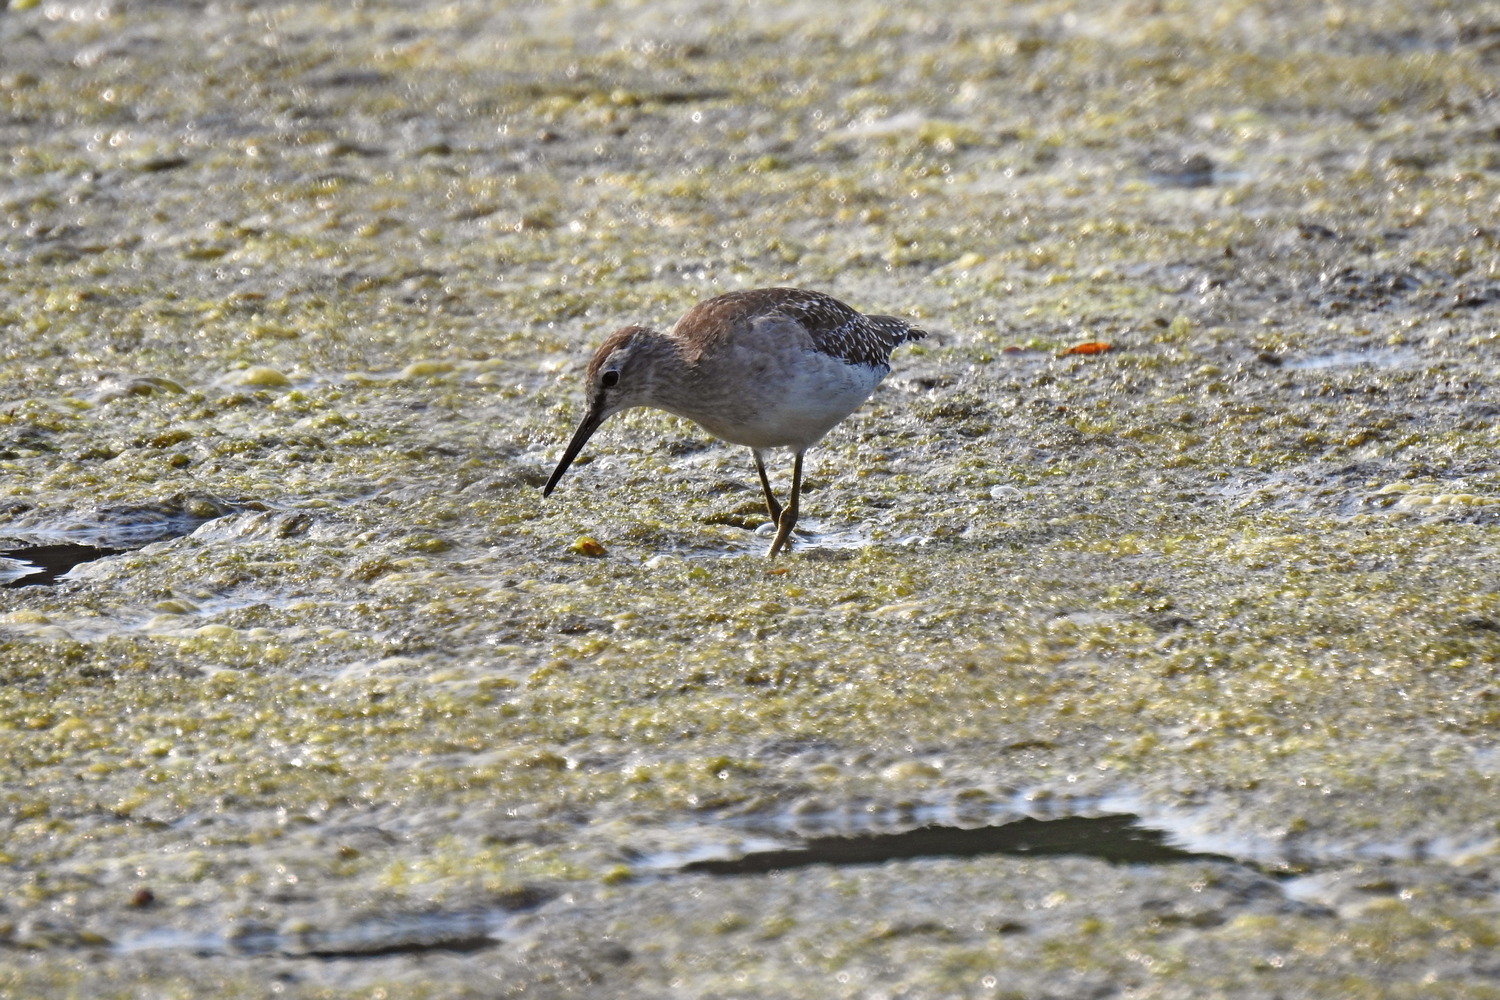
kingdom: Animalia
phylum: Chordata
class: Aves
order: Charadriiformes
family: Scolopacidae
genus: Tringa
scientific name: Tringa glareola
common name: Wood sandpiper
